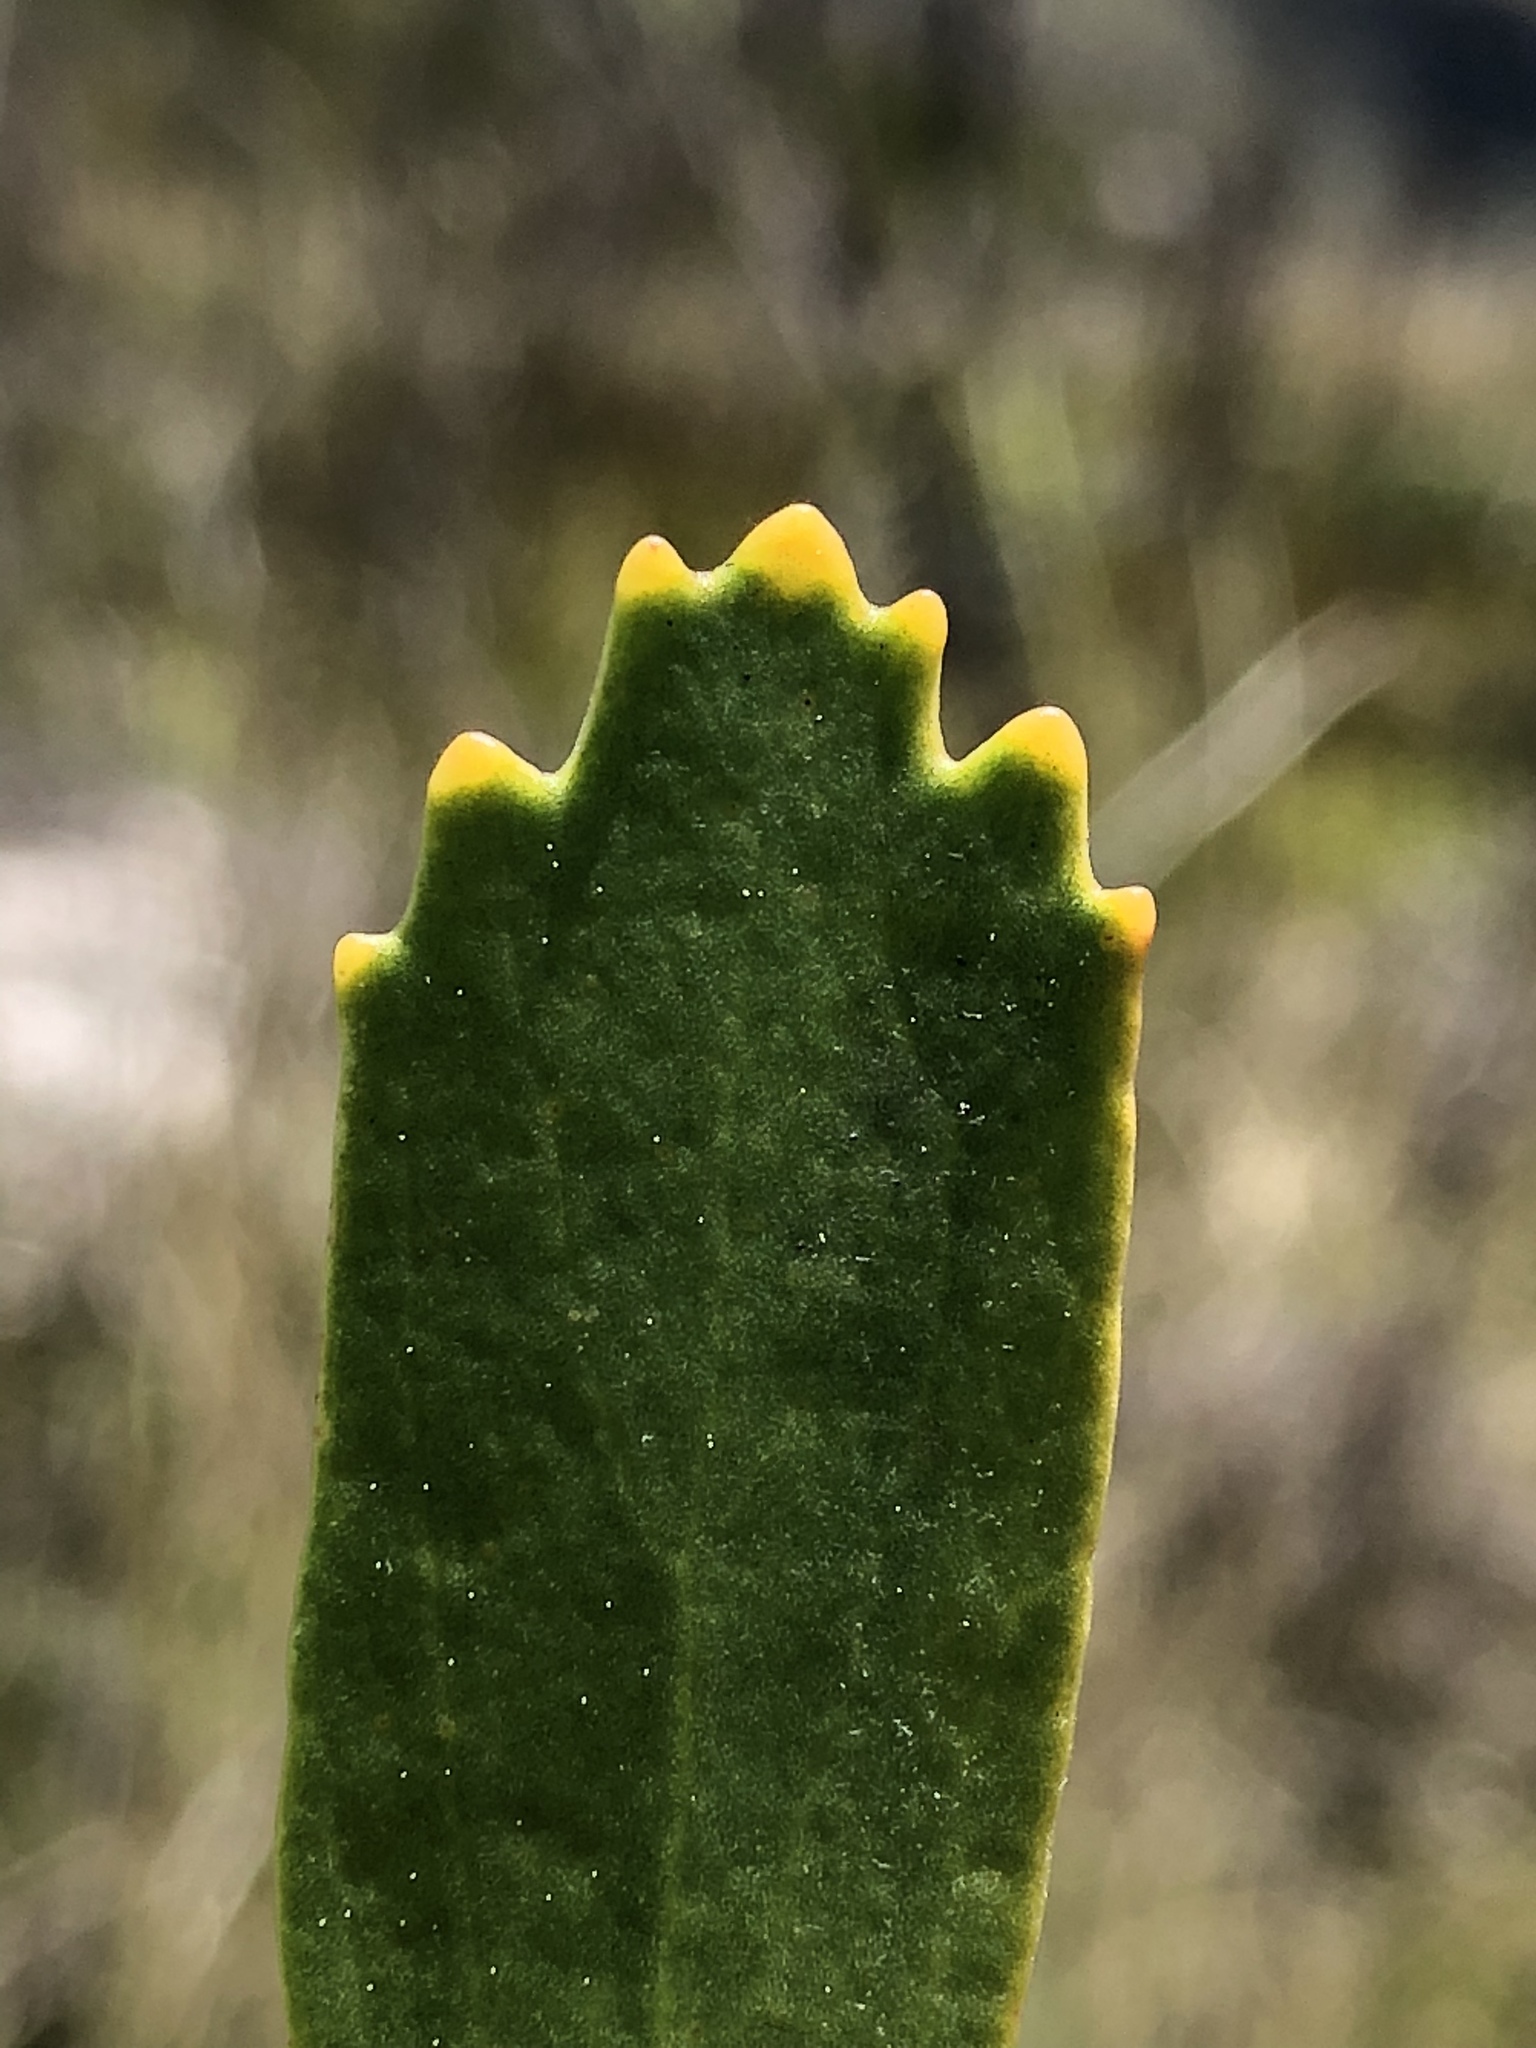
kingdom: Plantae
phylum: Tracheophyta
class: Magnoliopsida
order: Proteales
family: Proteaceae
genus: Leucospermum
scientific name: Leucospermum cuneiforme
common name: Common pincushion
